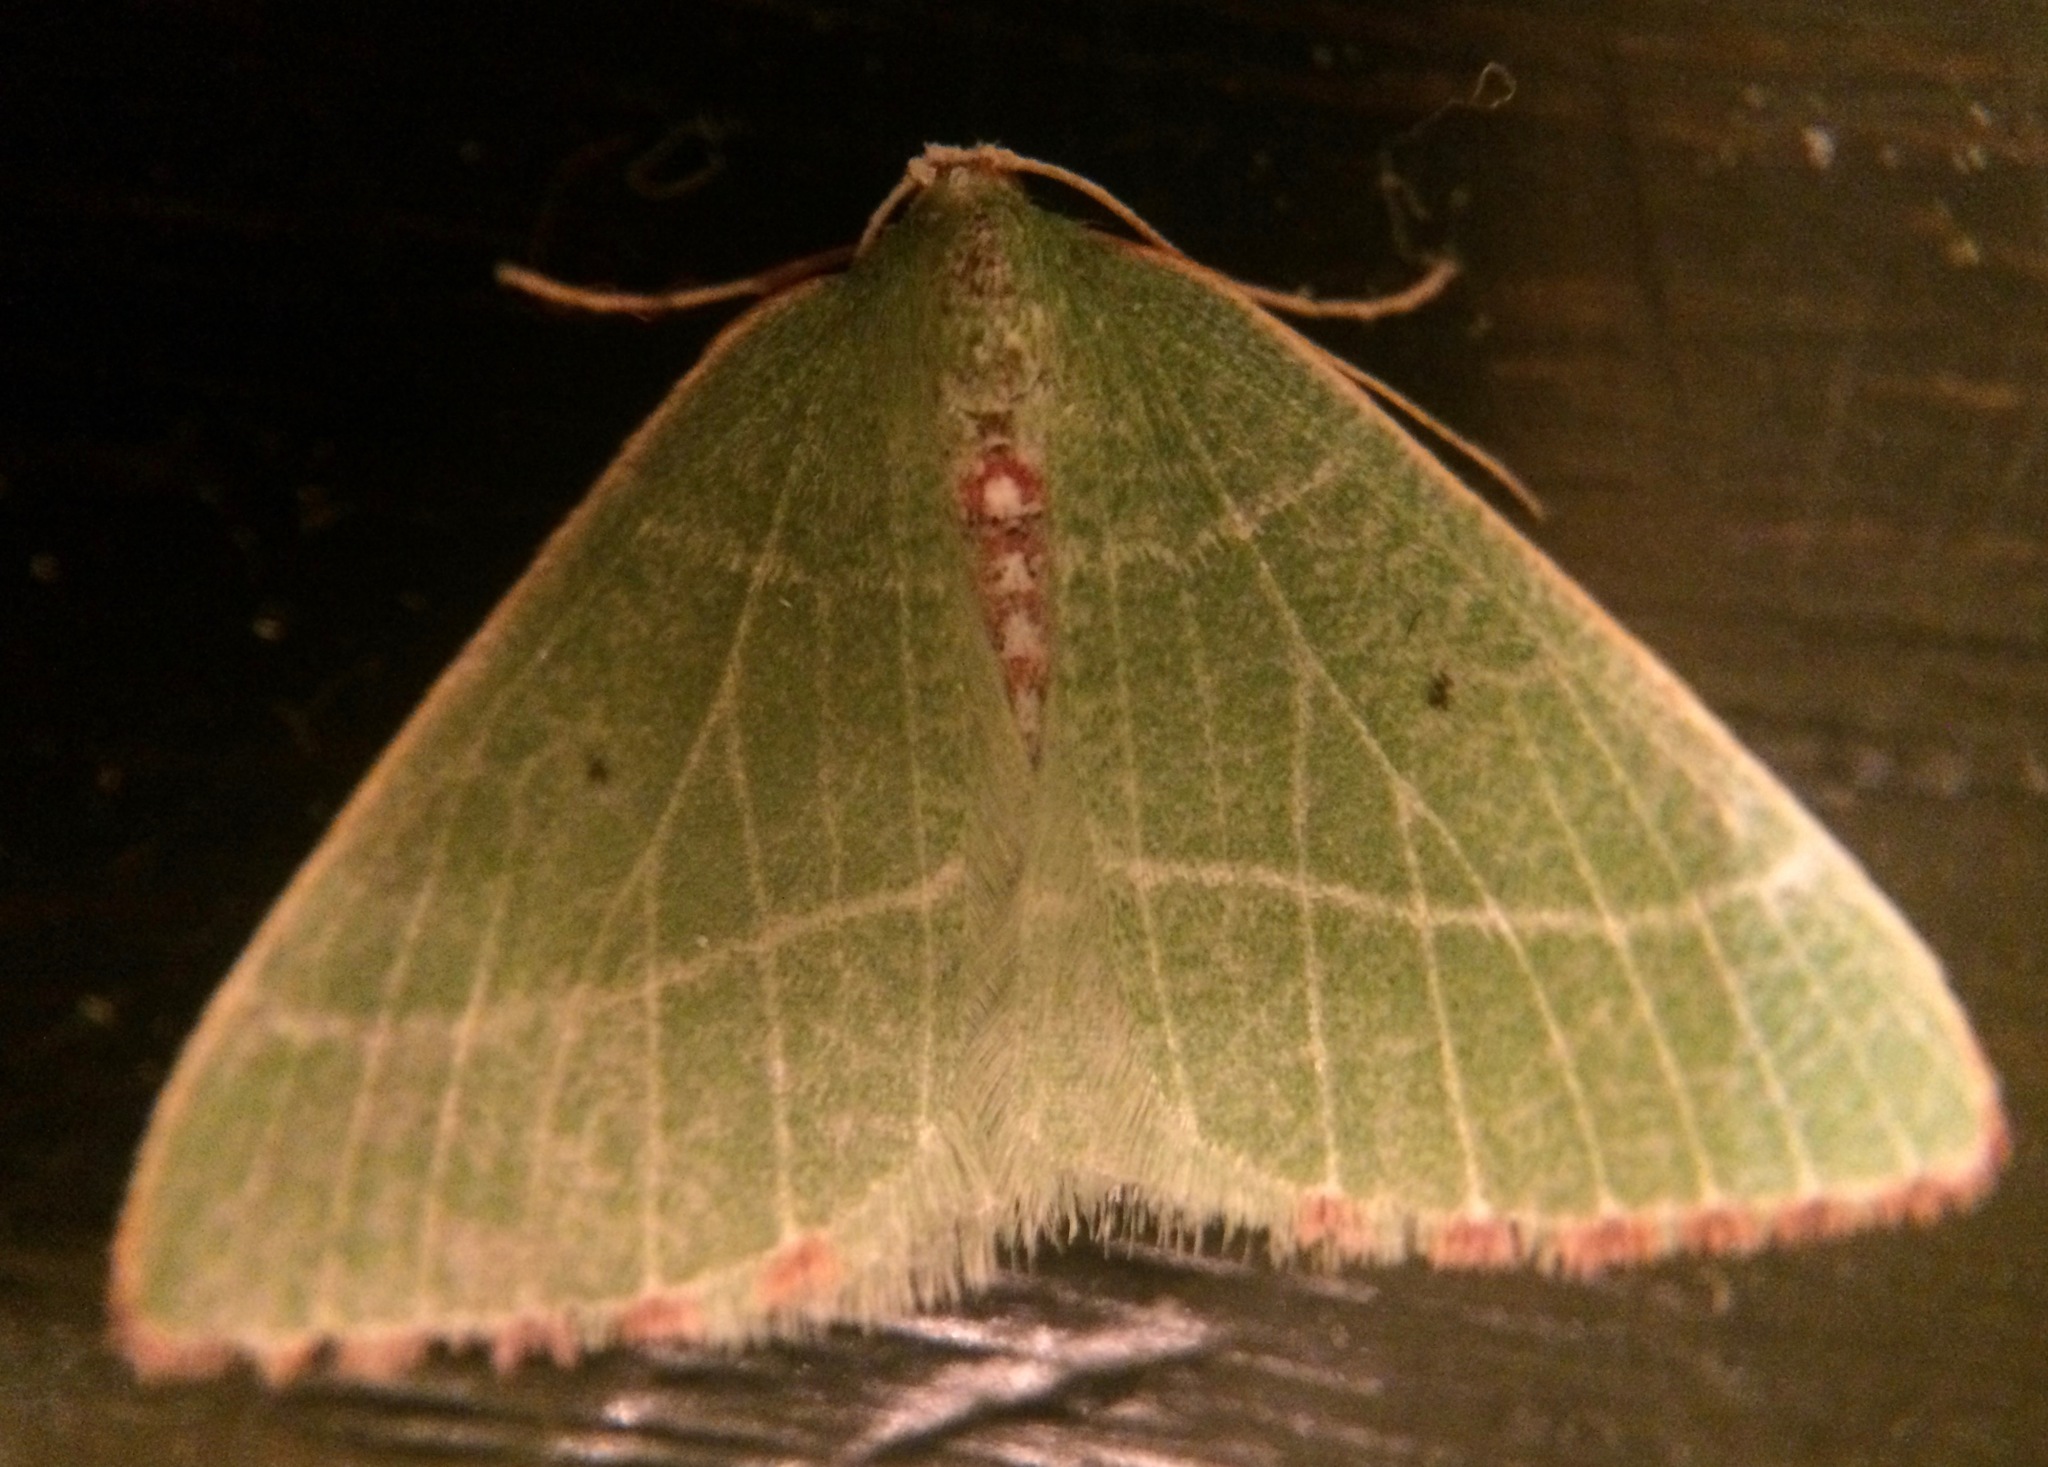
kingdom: Animalia
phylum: Arthropoda
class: Insecta
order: Lepidoptera
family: Geometridae
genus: Nemoria
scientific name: Nemoria pulcherrima
